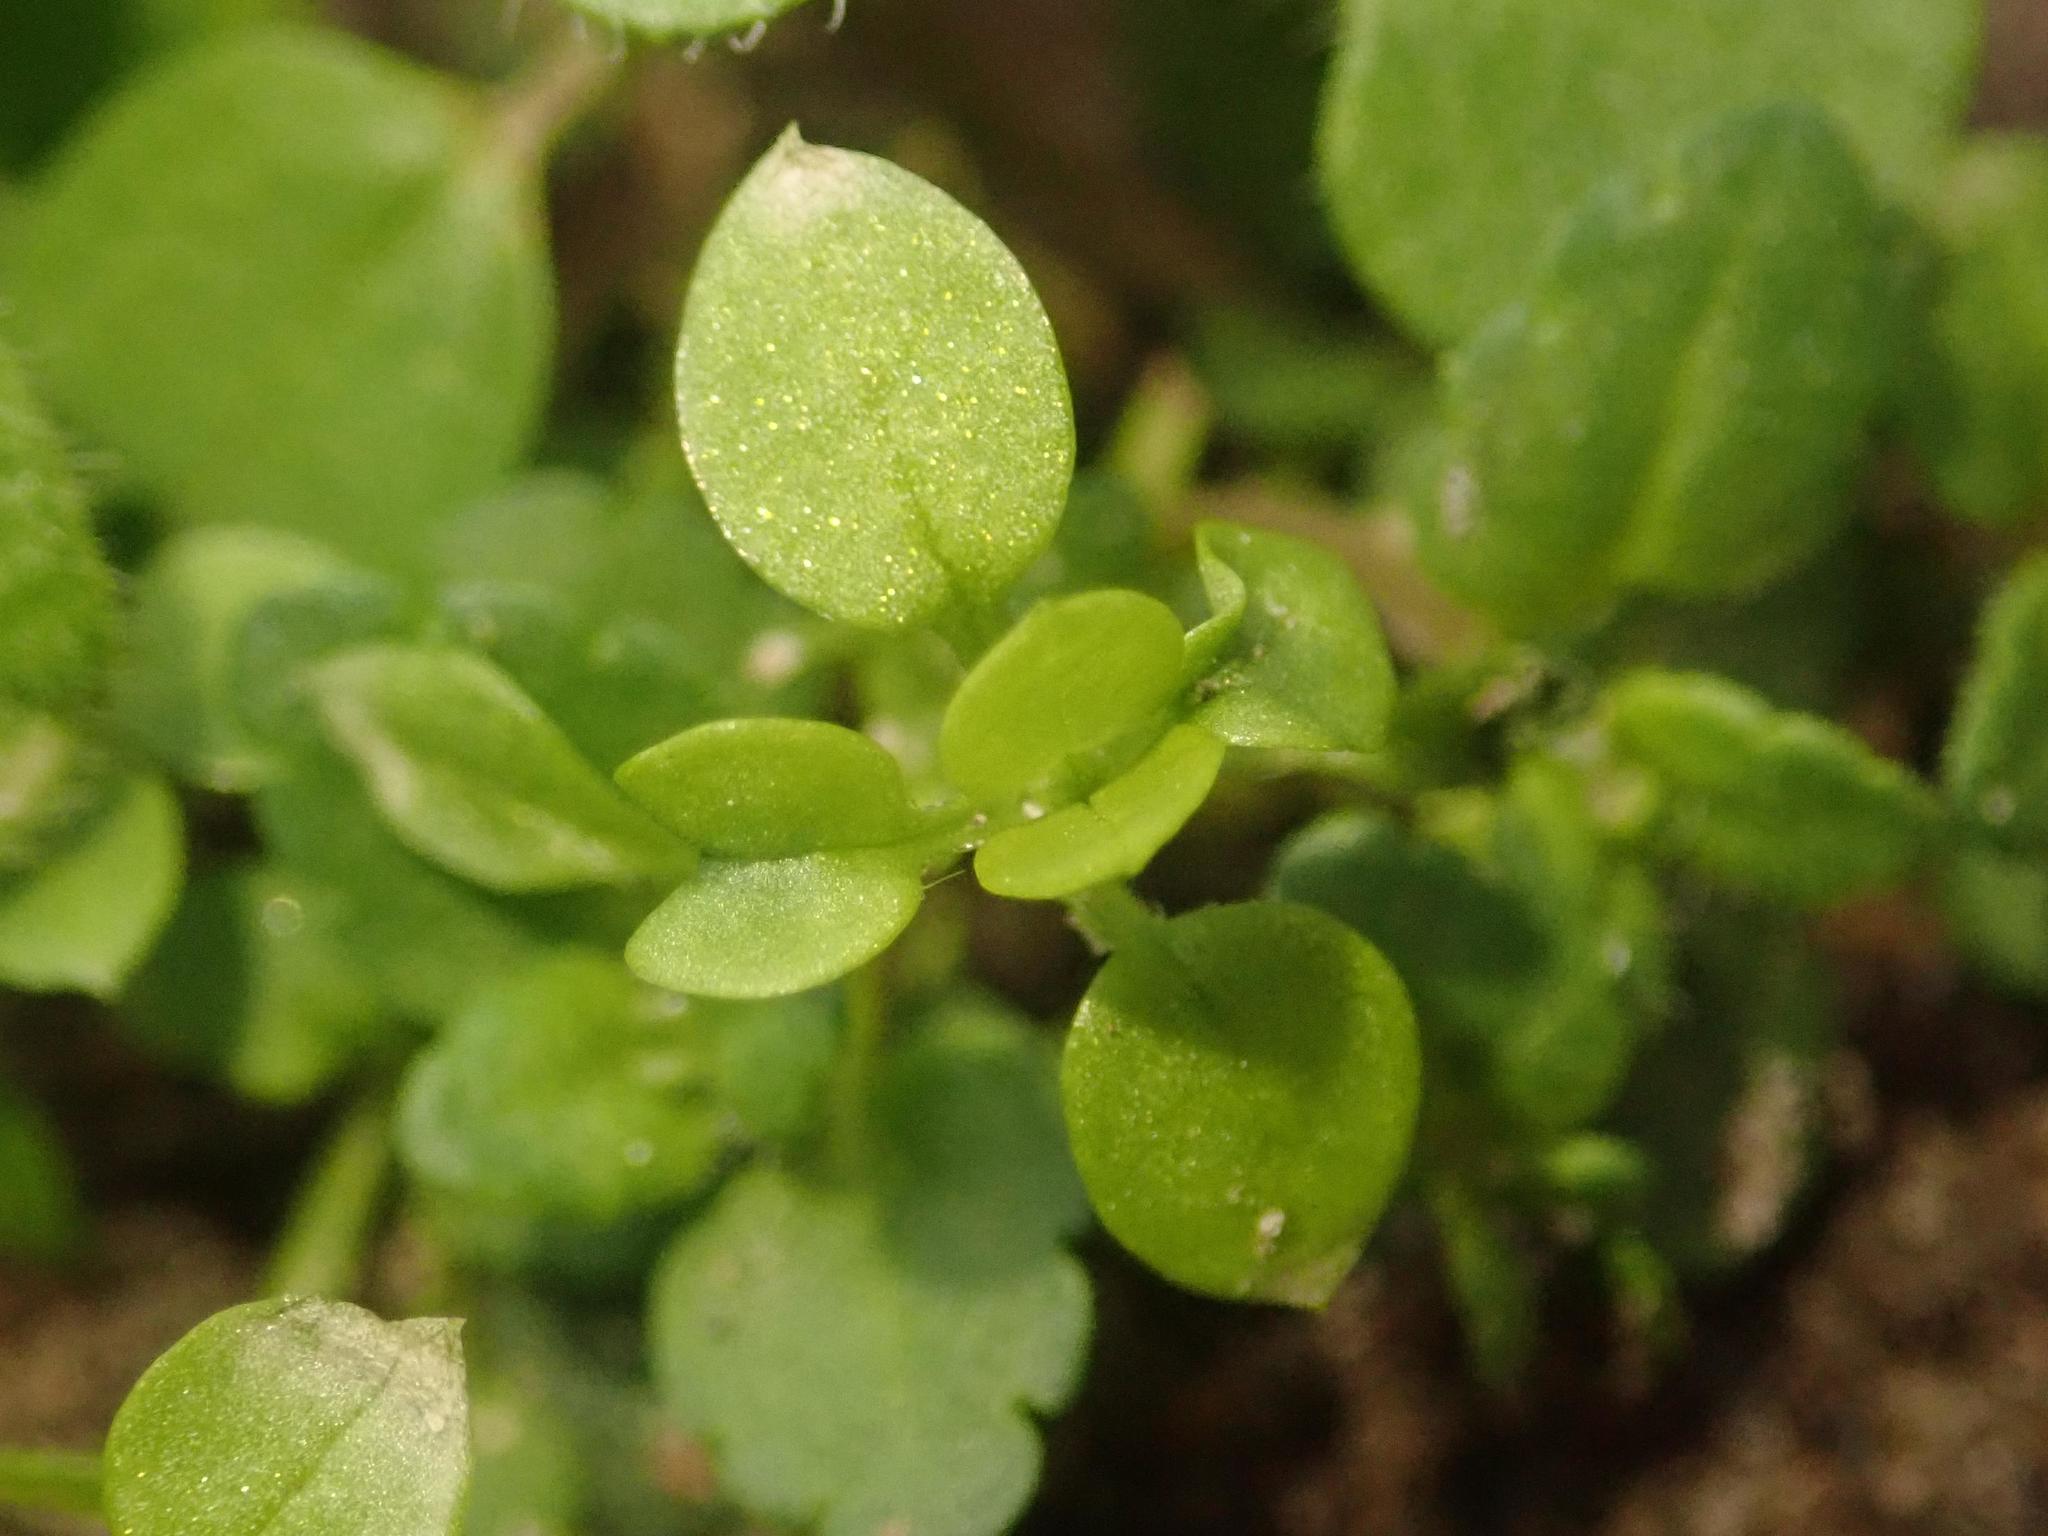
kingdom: Plantae
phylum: Tracheophyta
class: Magnoliopsida
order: Caryophyllales
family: Caryophyllaceae
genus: Stellaria
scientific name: Stellaria media
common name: Common chickweed
